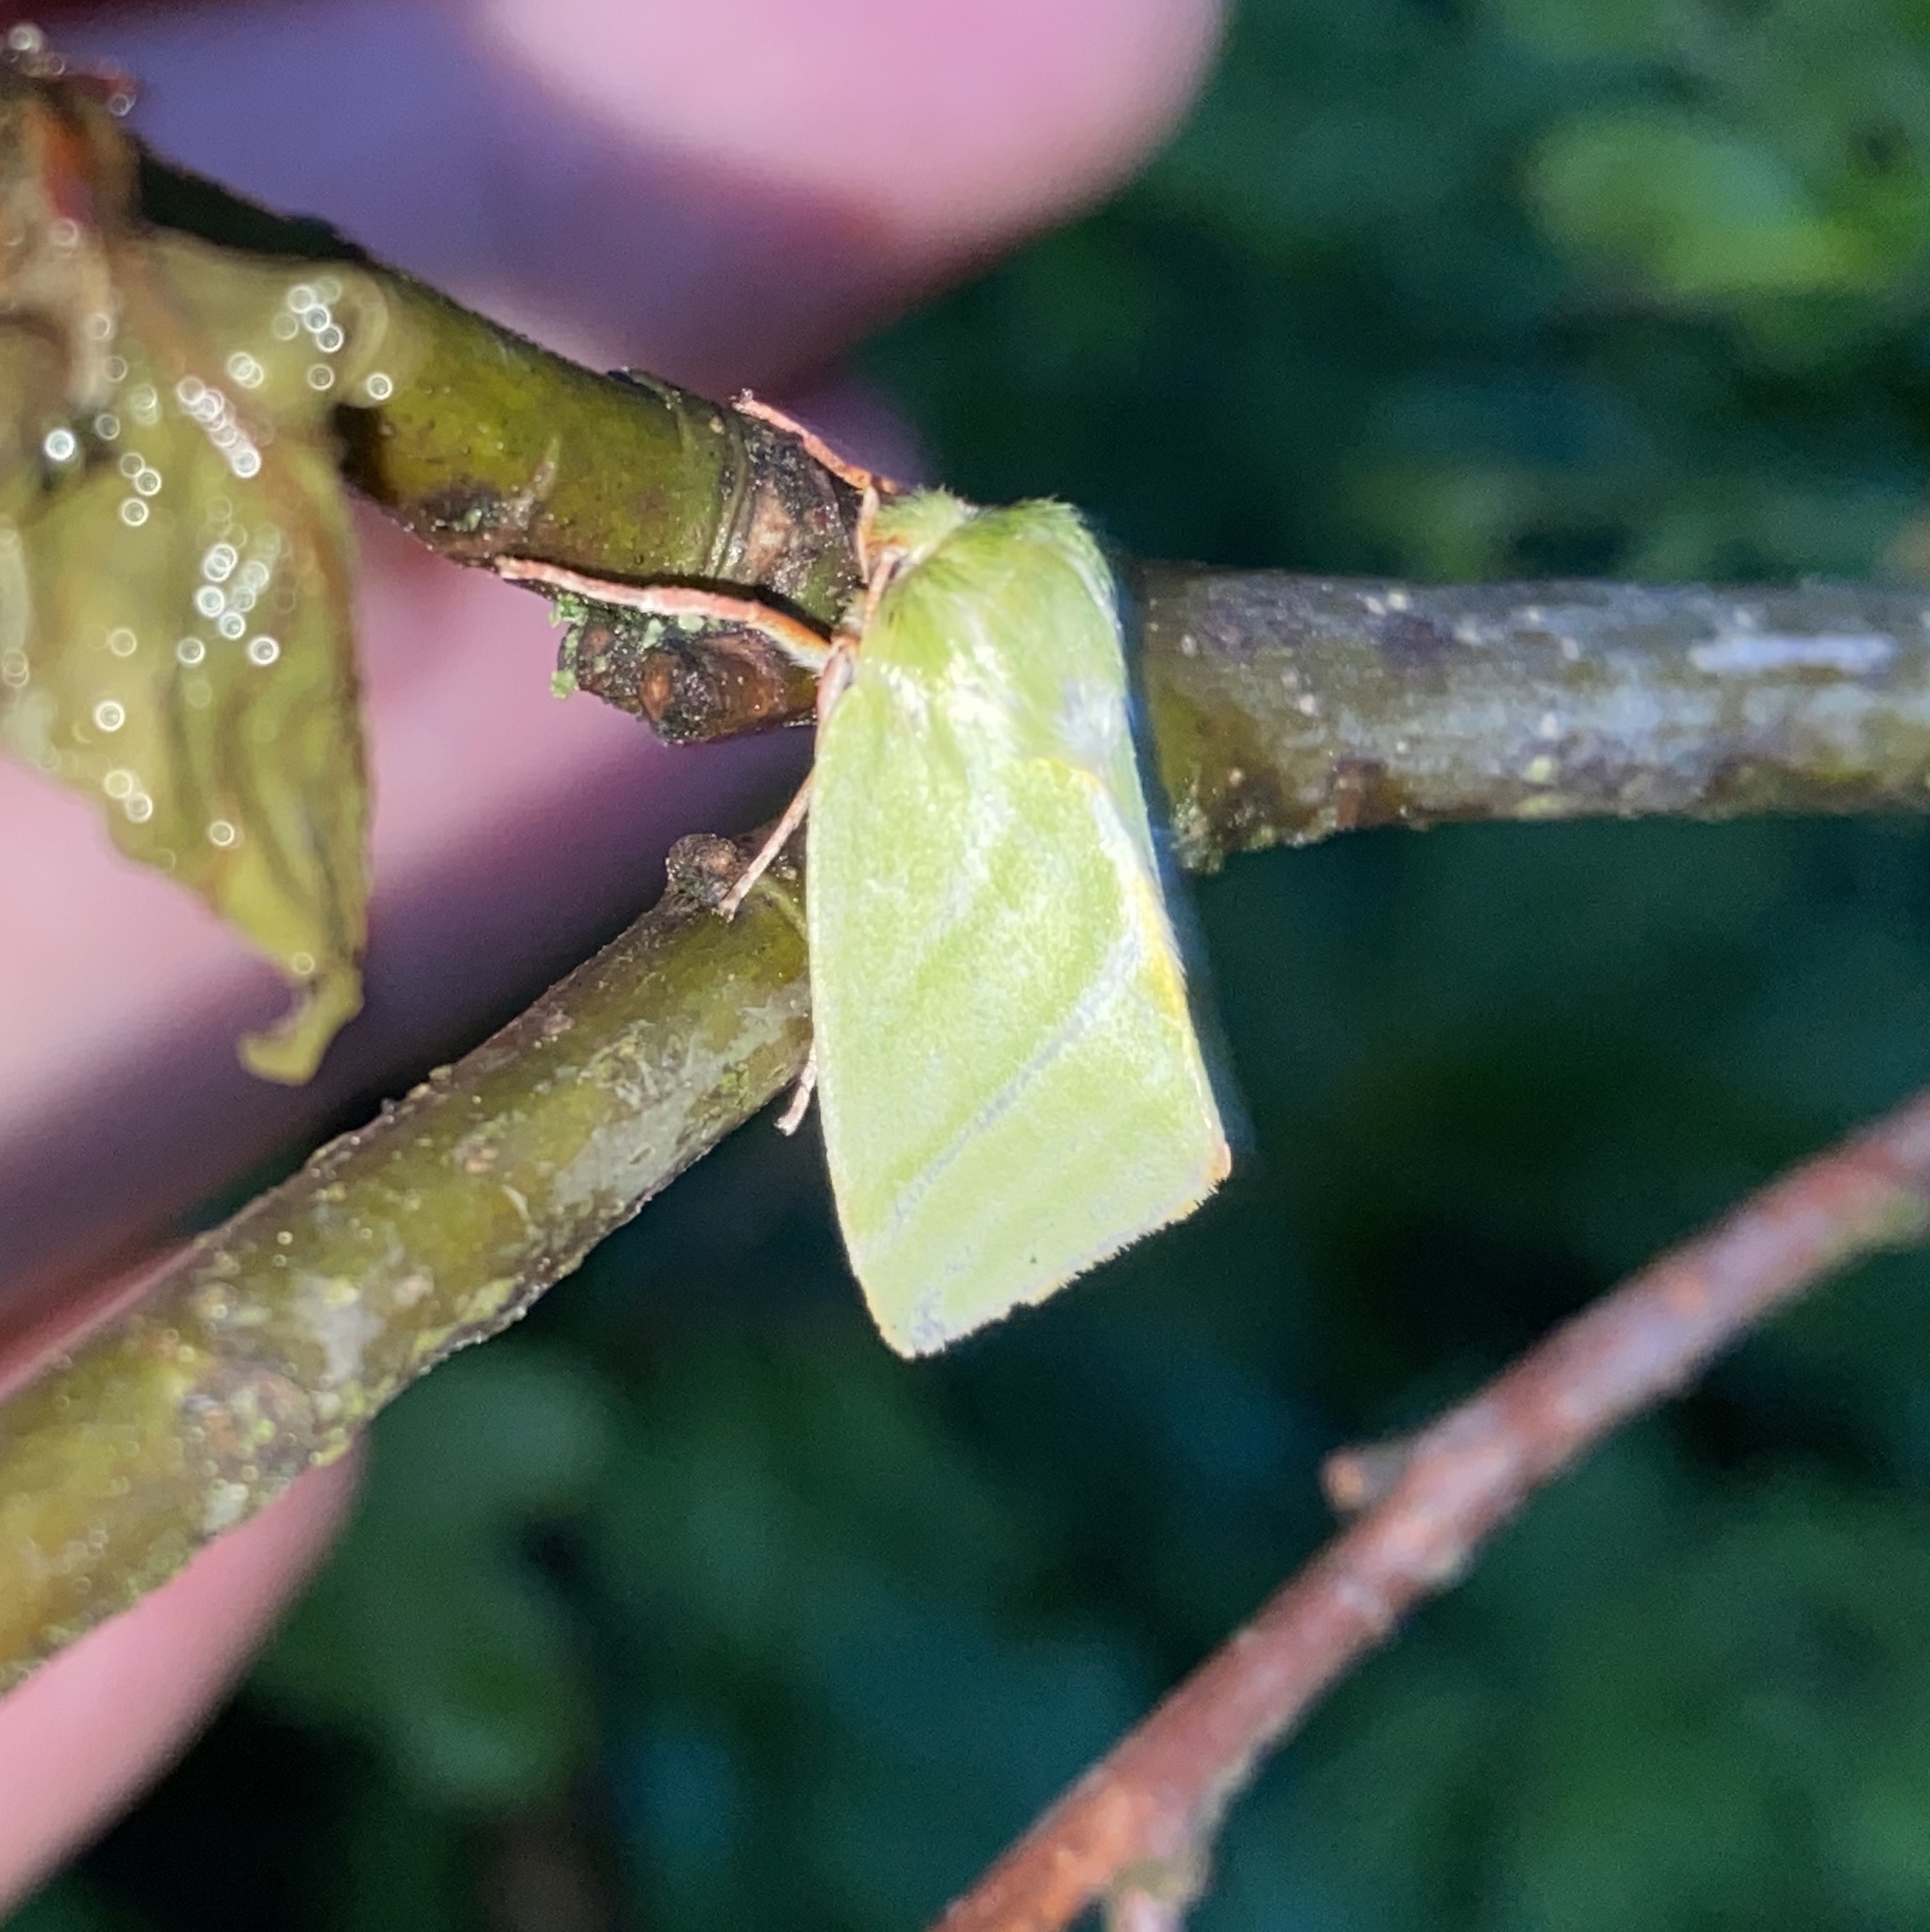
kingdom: Animalia
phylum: Arthropoda
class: Insecta
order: Lepidoptera
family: Nolidae
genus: Pseudoips
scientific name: Pseudoips prasinana
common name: Green silver-lines
